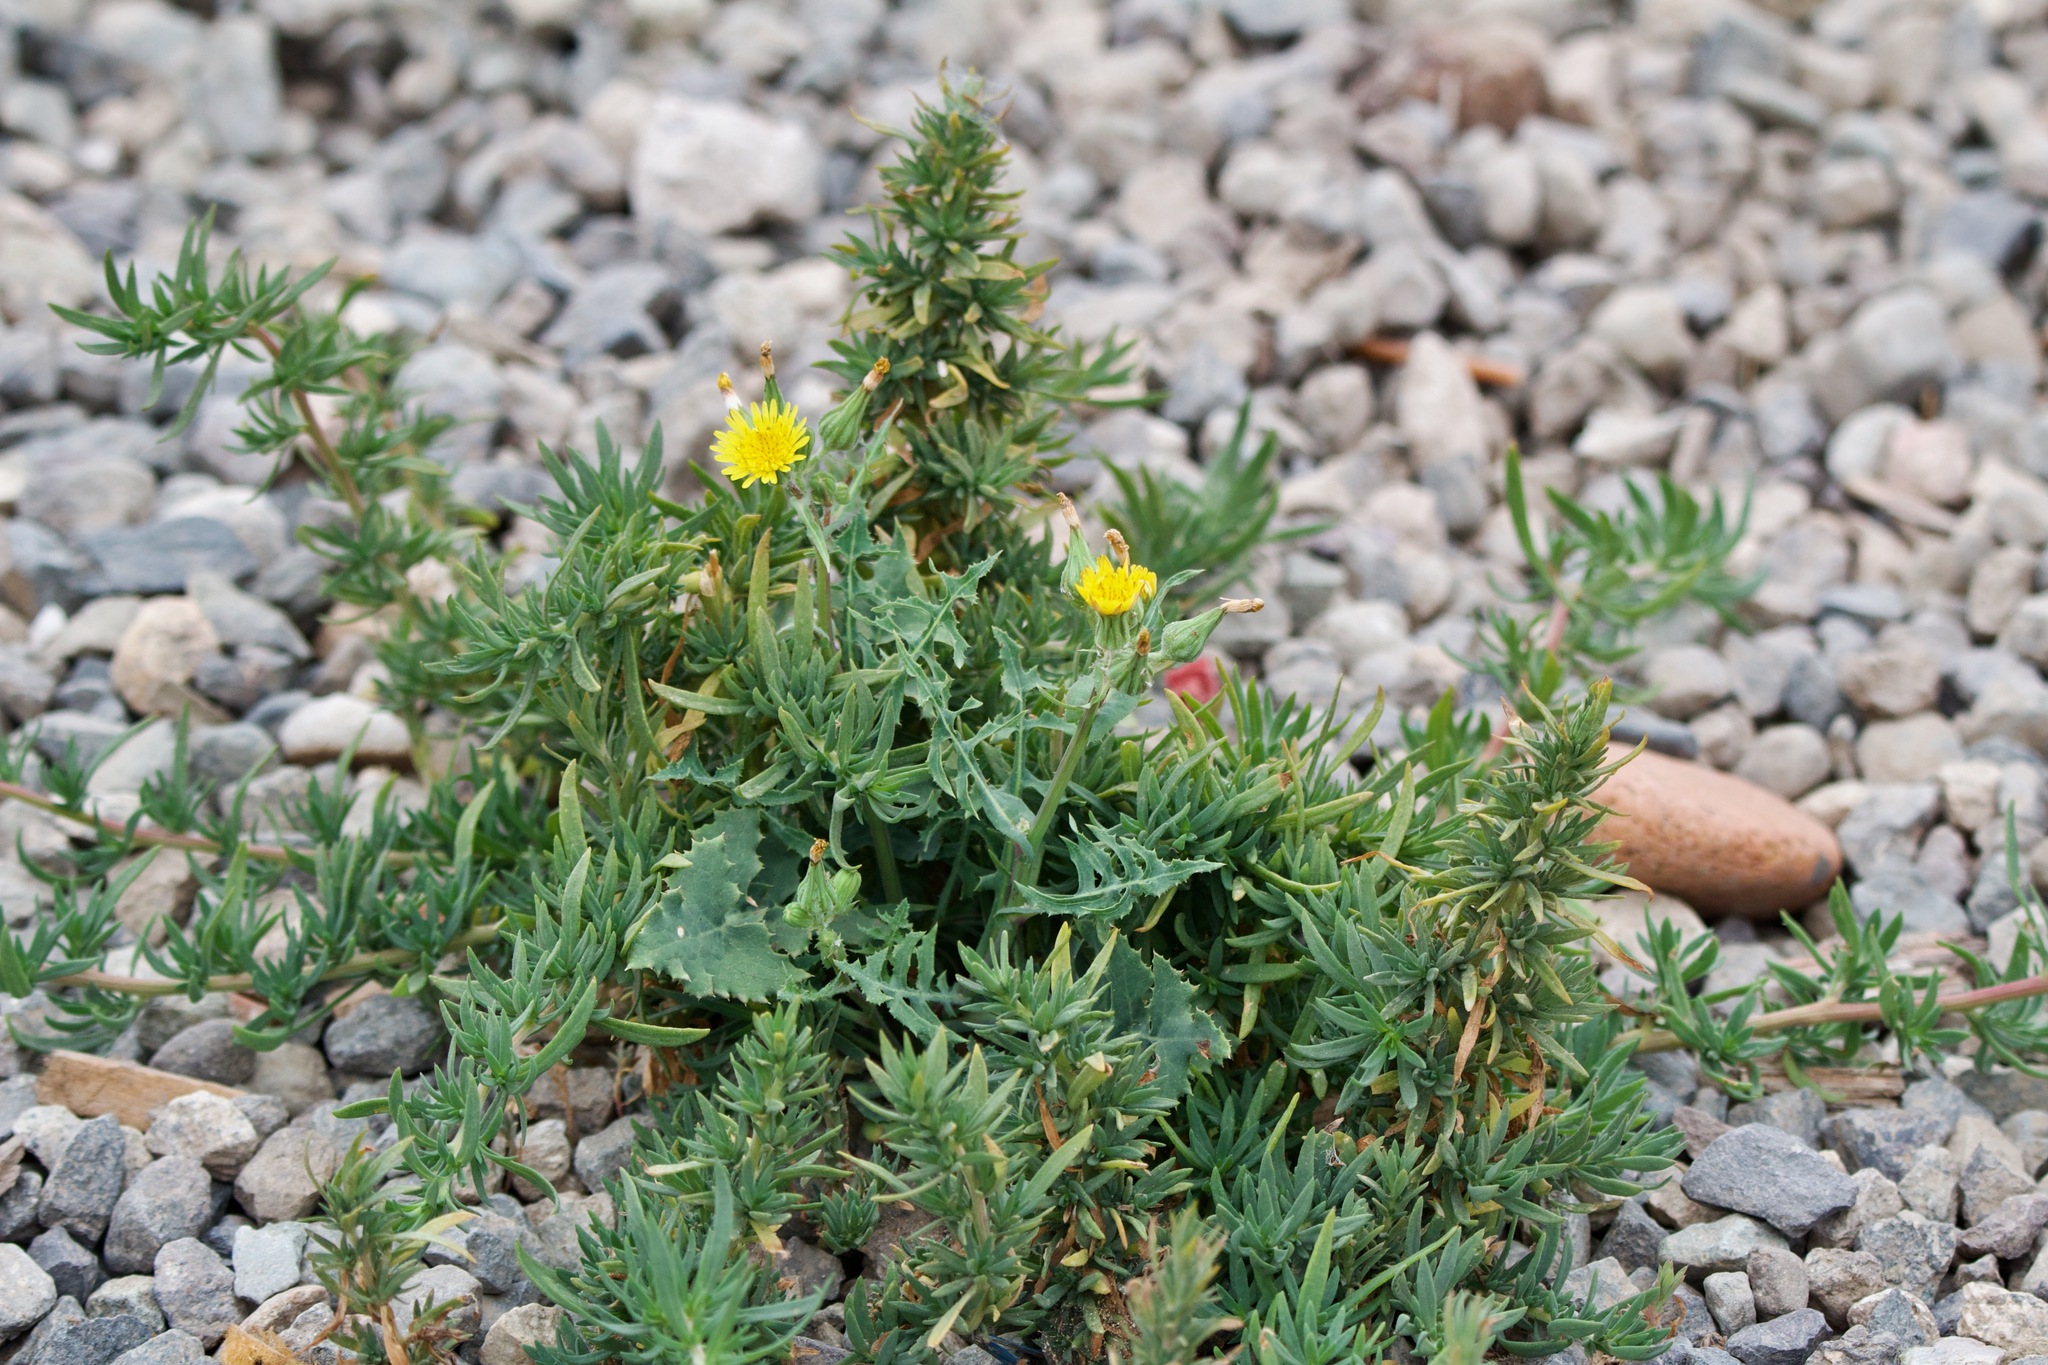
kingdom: Plantae
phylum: Tracheophyta
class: Magnoliopsida
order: Asterales
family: Asteraceae
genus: Sonchus
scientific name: Sonchus oleraceus
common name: Common sowthistle
